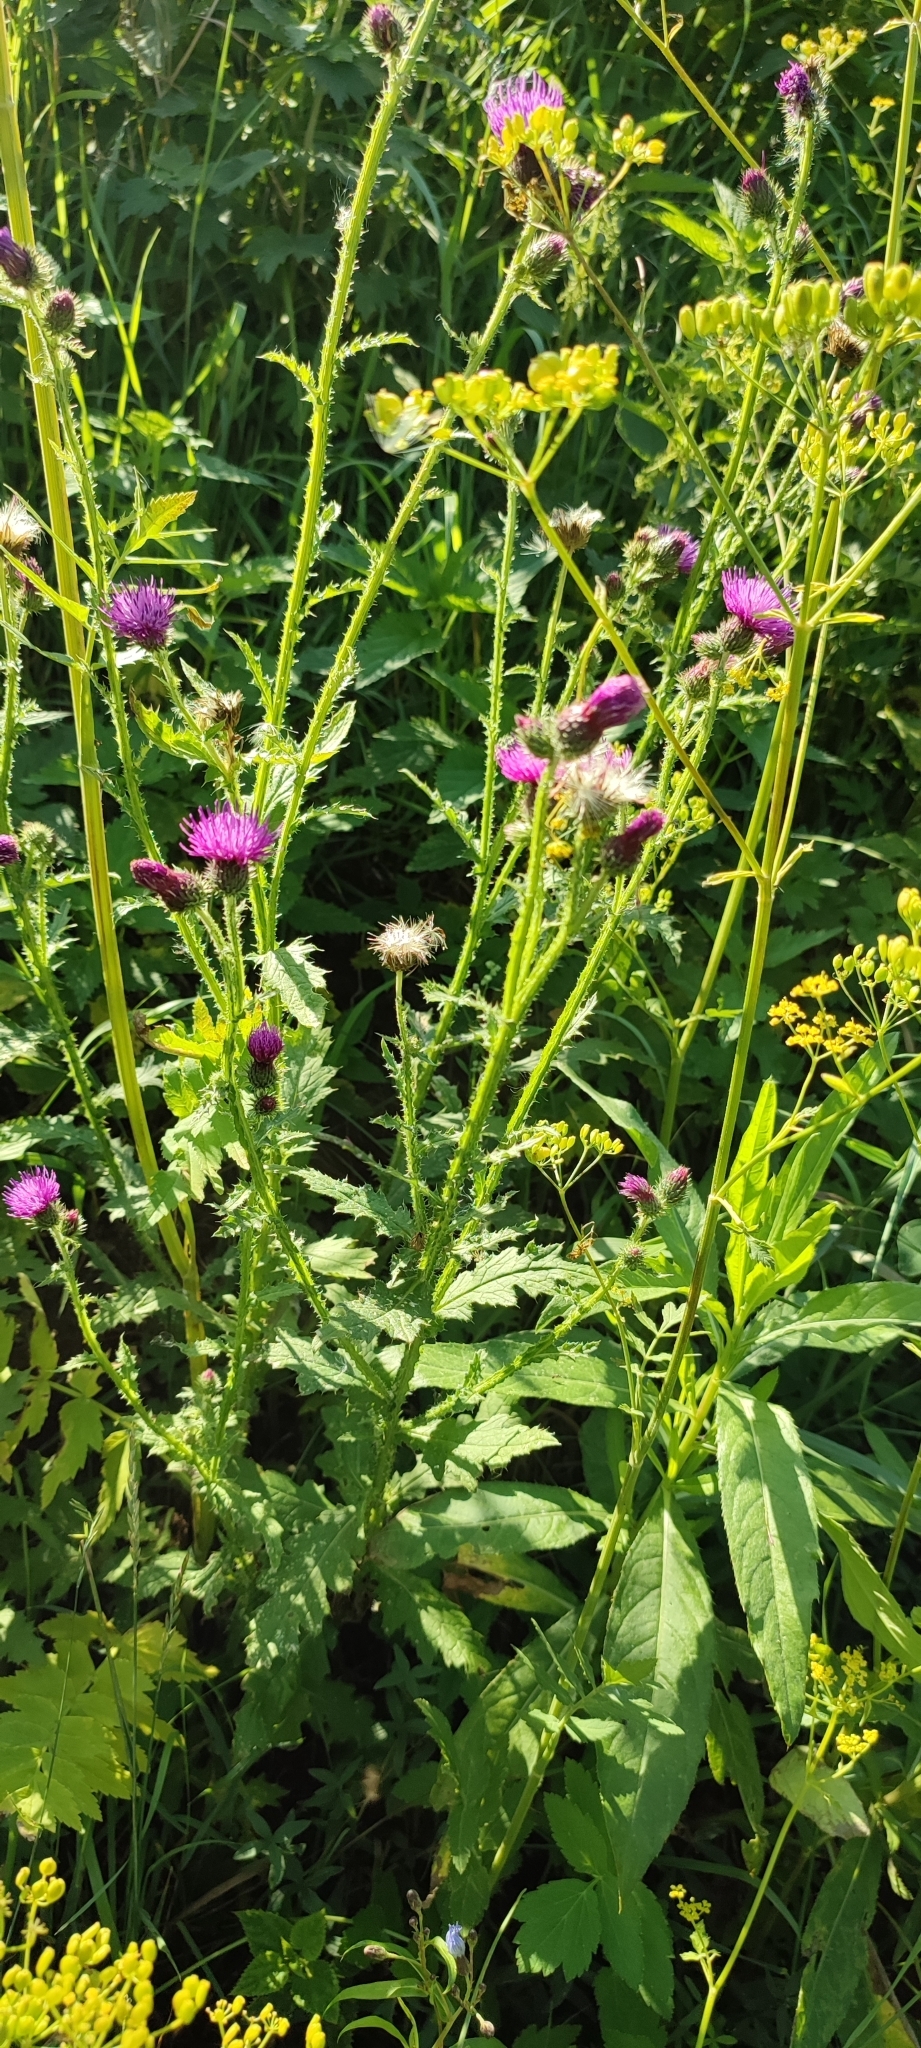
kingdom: Plantae
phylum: Tracheophyta
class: Magnoliopsida
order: Asterales
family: Asteraceae
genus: Carduus
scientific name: Carduus crispus
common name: Welted thistle
